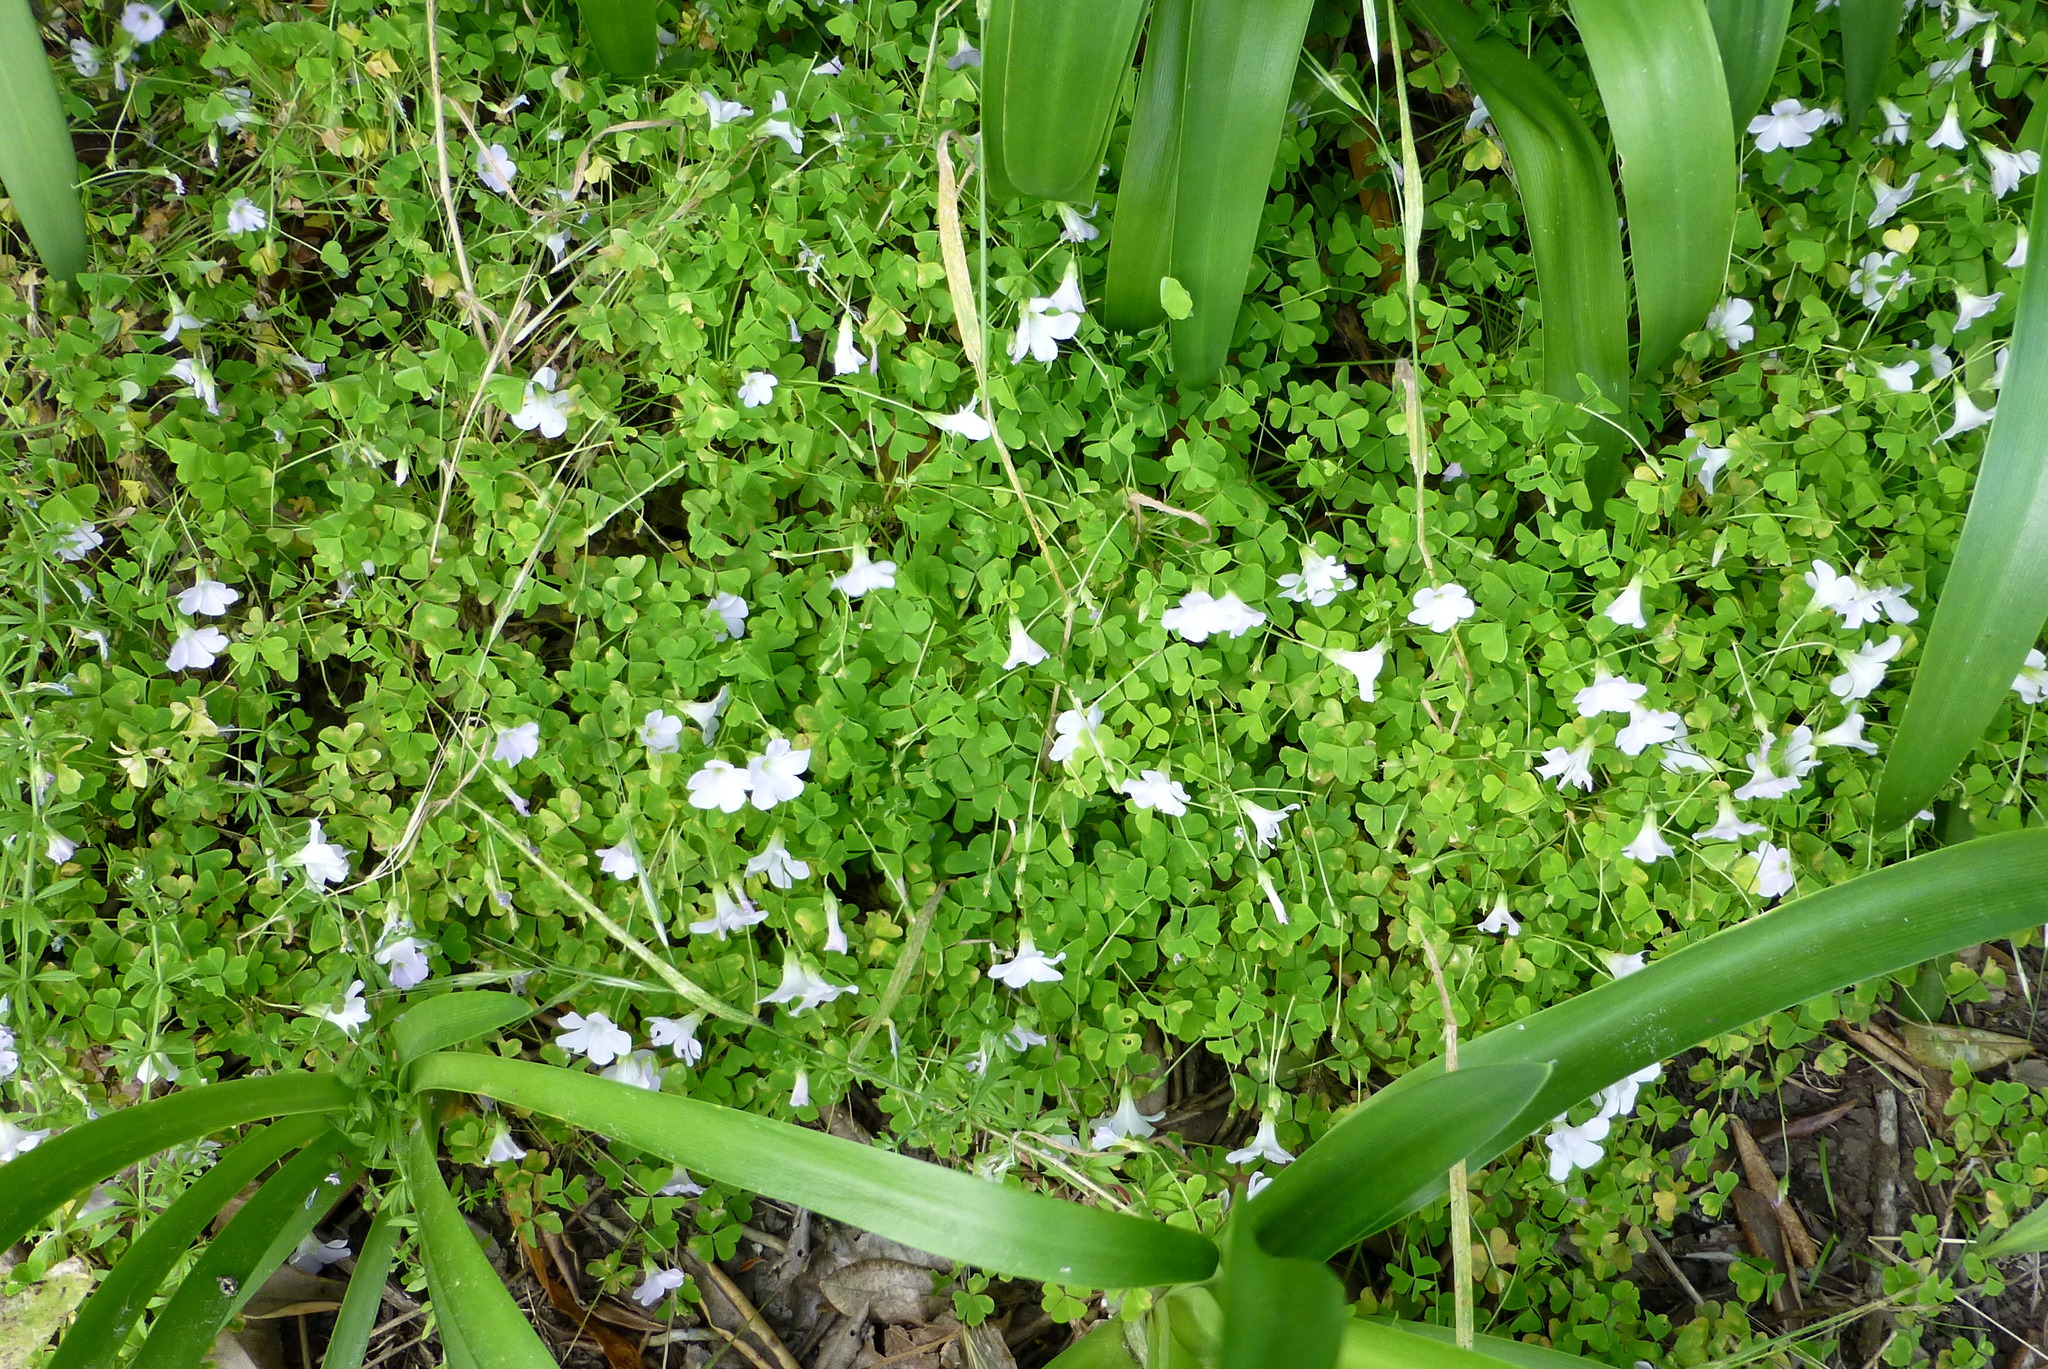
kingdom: Plantae
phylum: Tracheophyta
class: Magnoliopsida
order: Oxalidales
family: Oxalidaceae
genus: Oxalis
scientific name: Oxalis incarnata
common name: Pale pink-sorrel
